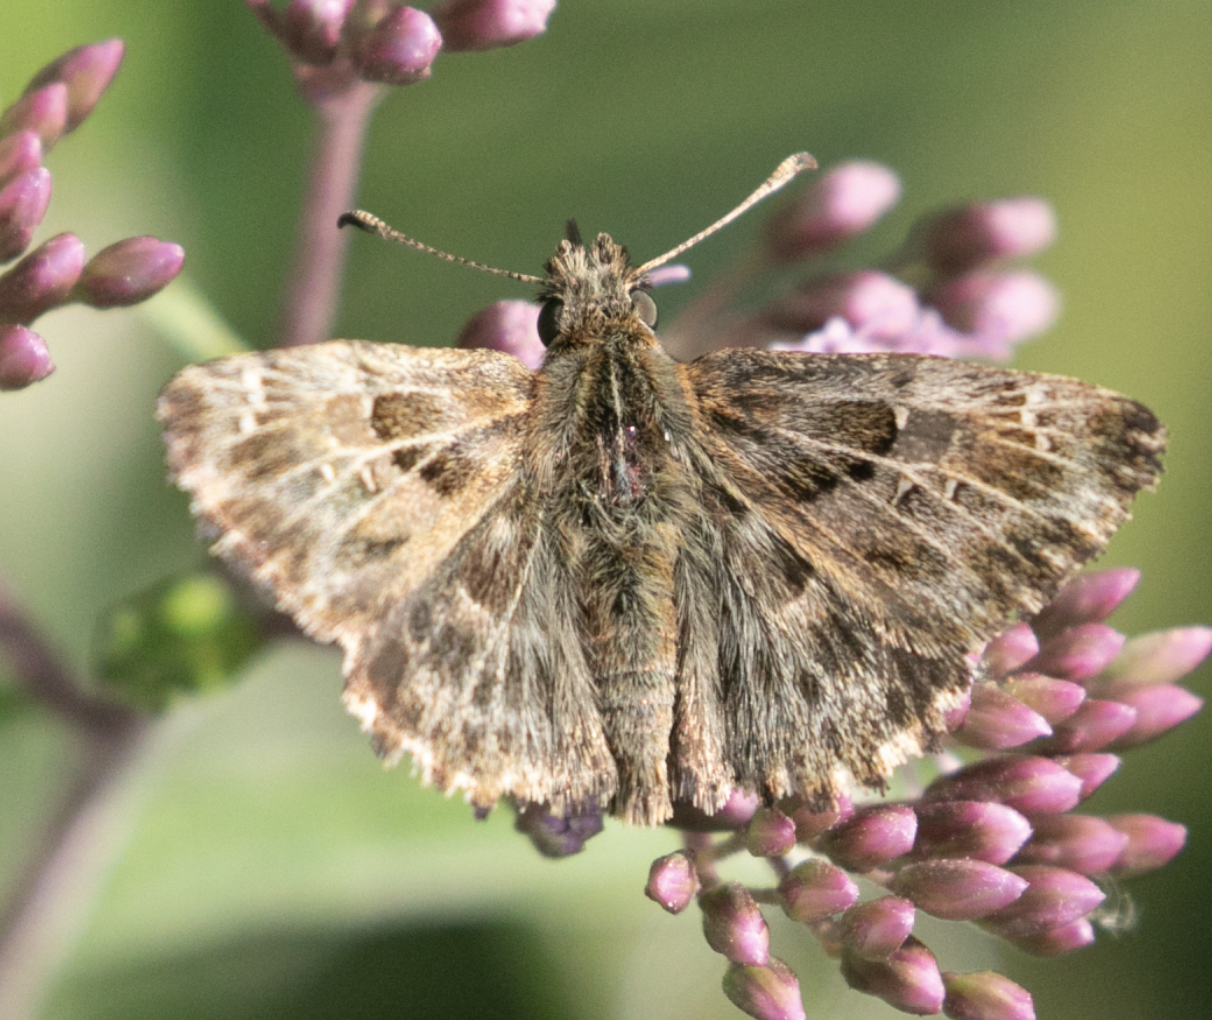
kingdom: Animalia
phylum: Arthropoda
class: Insecta
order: Lepidoptera
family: Hesperiidae
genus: Carcharodus
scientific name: Carcharodus alceae
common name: Mallow skipper
